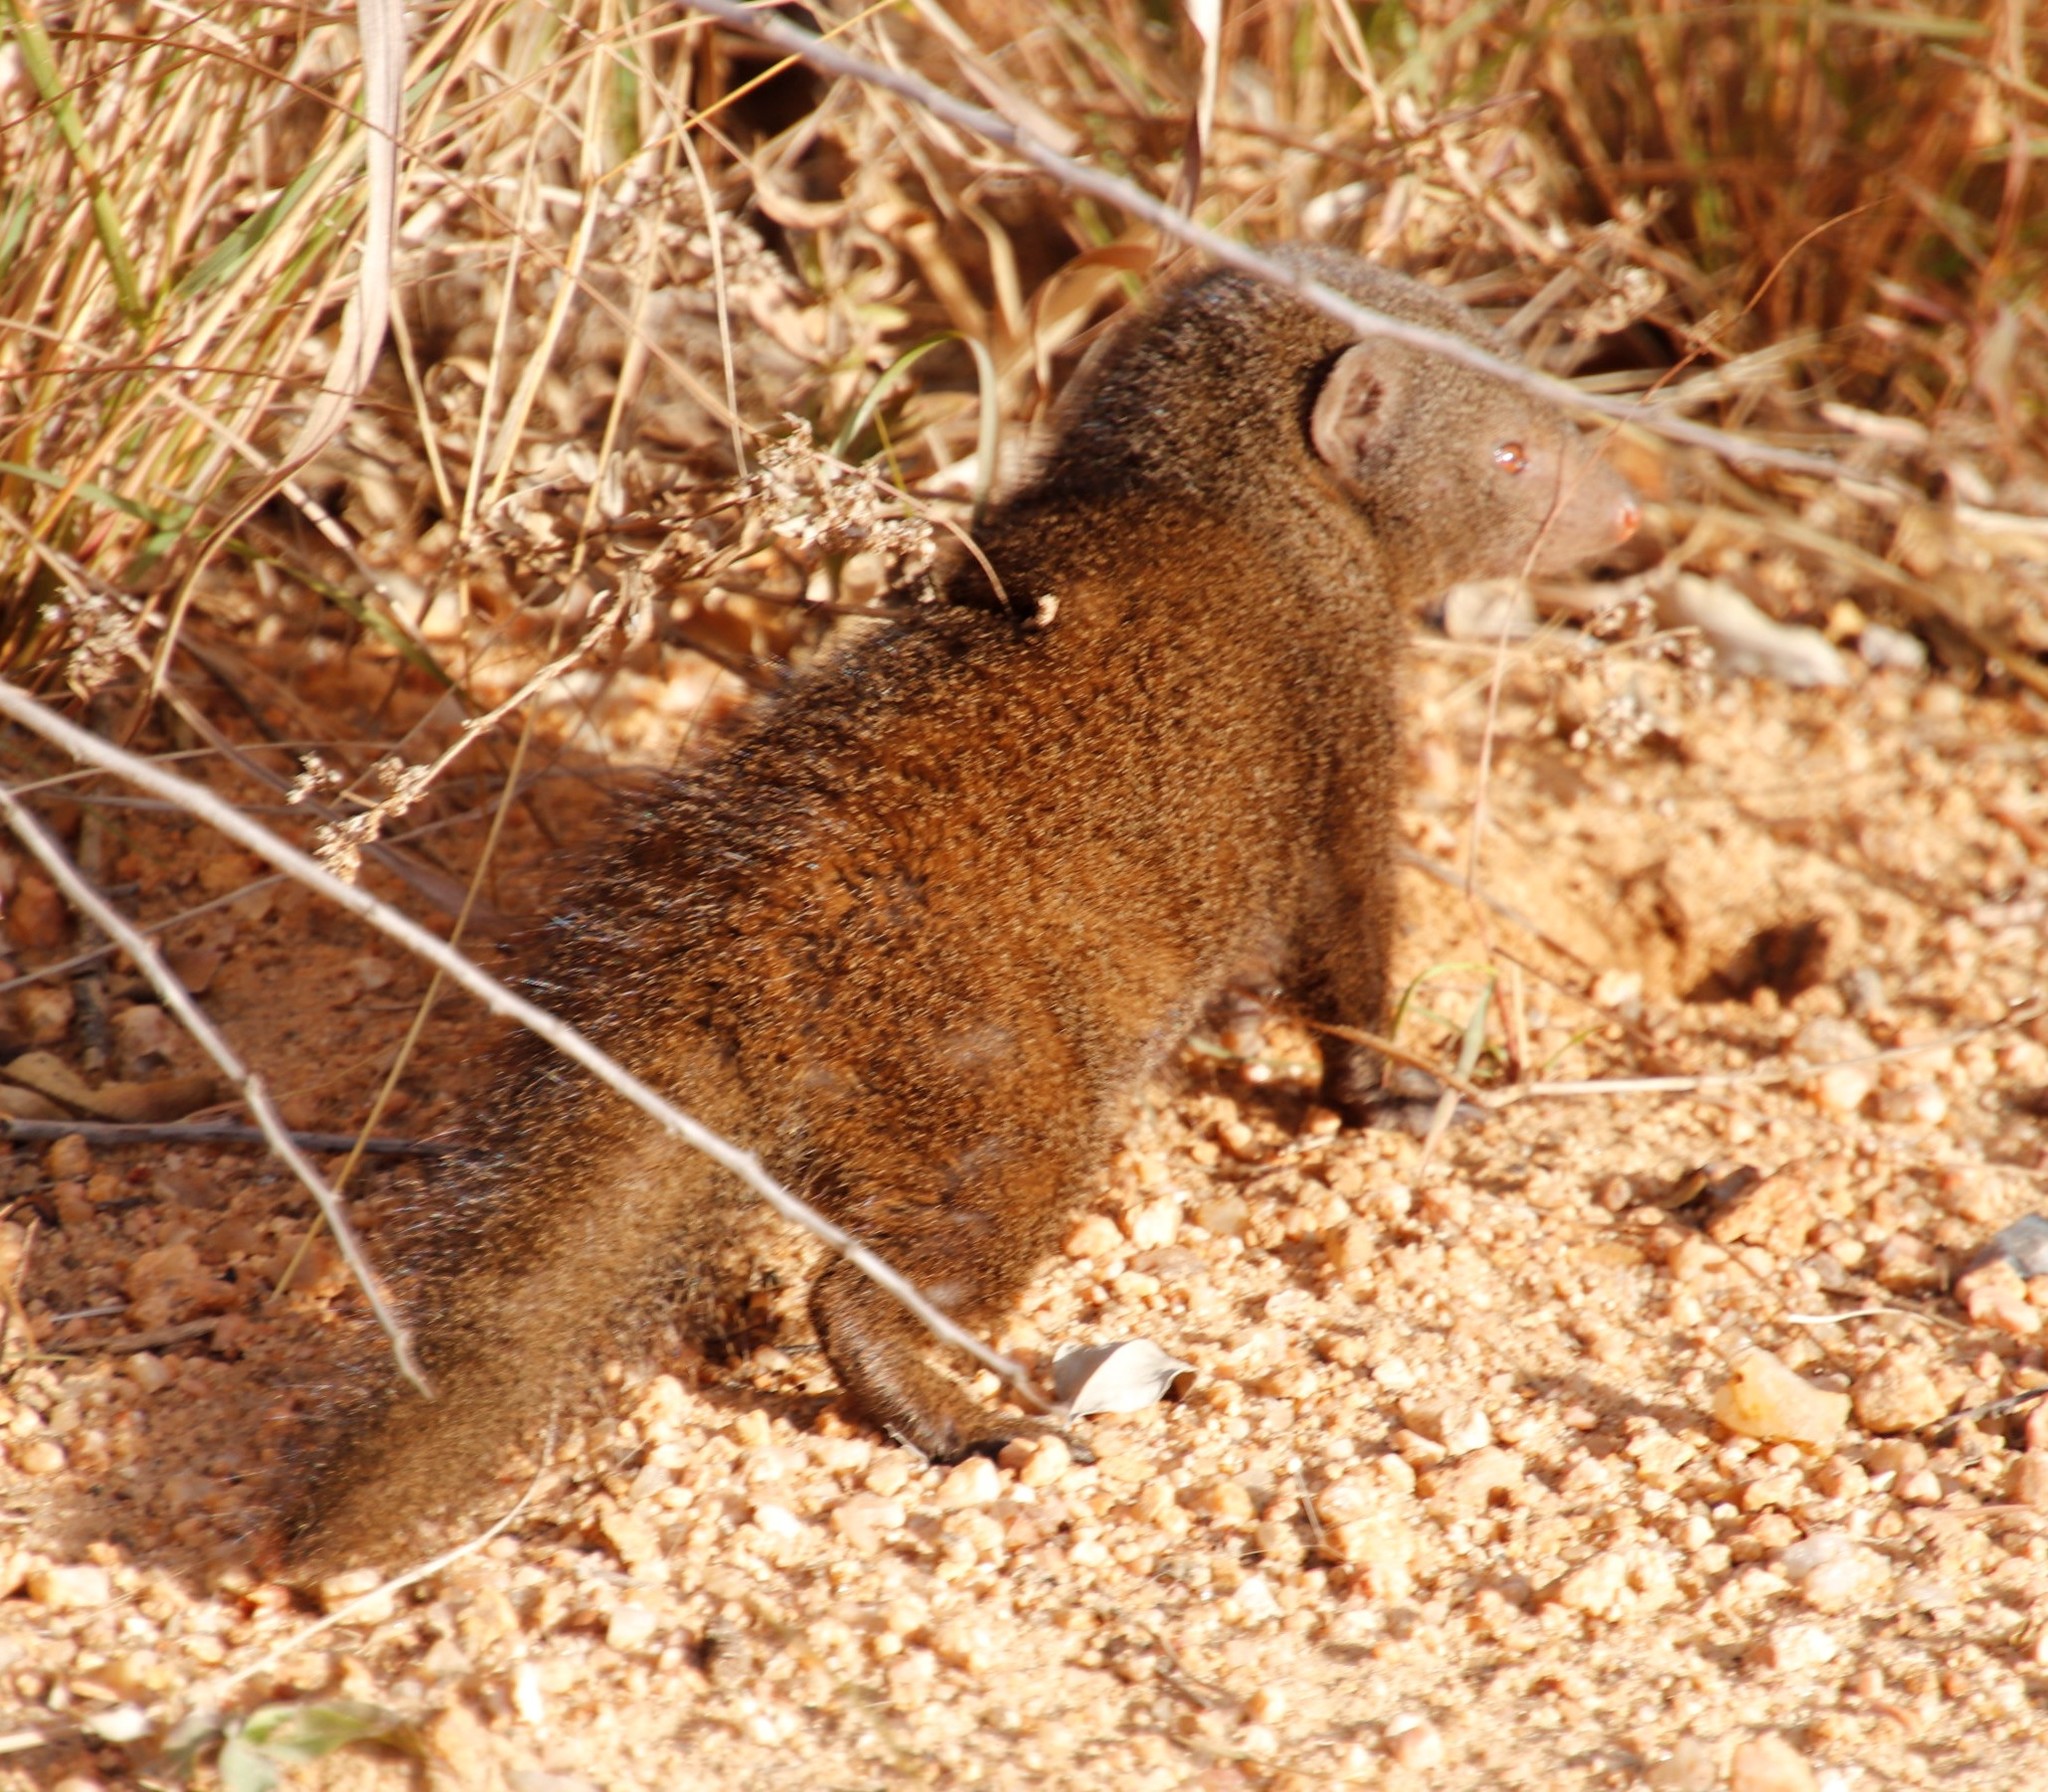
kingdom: Animalia
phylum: Chordata
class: Mammalia
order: Carnivora
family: Herpestidae
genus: Helogale
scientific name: Helogale parvula
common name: Common dwarf mongoose
